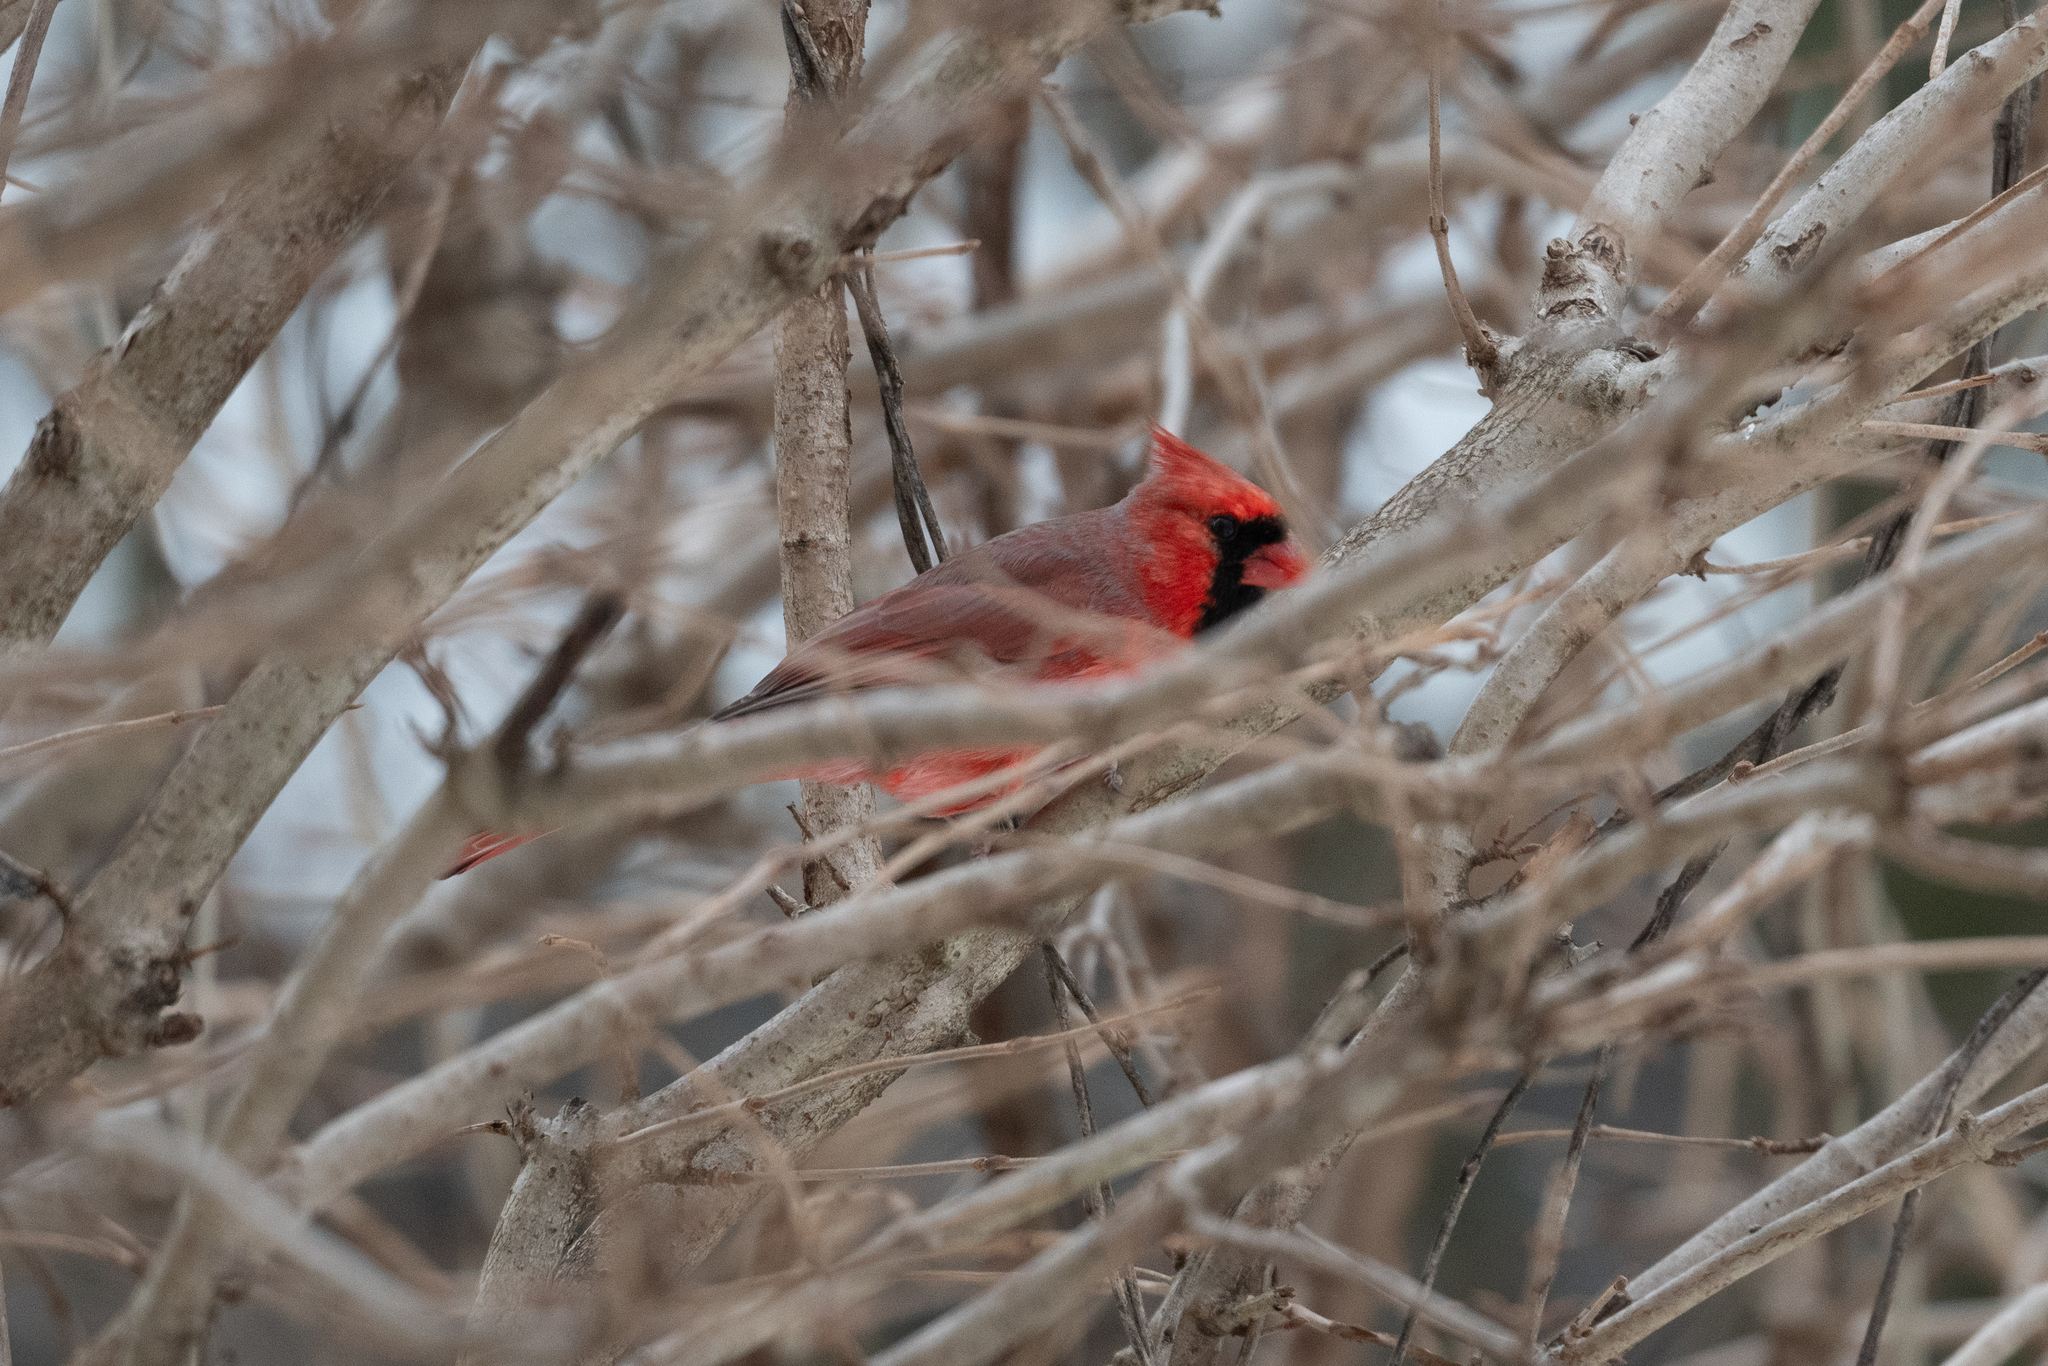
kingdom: Animalia
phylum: Chordata
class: Aves
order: Passeriformes
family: Cardinalidae
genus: Cardinalis
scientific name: Cardinalis cardinalis
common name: Northern cardinal
